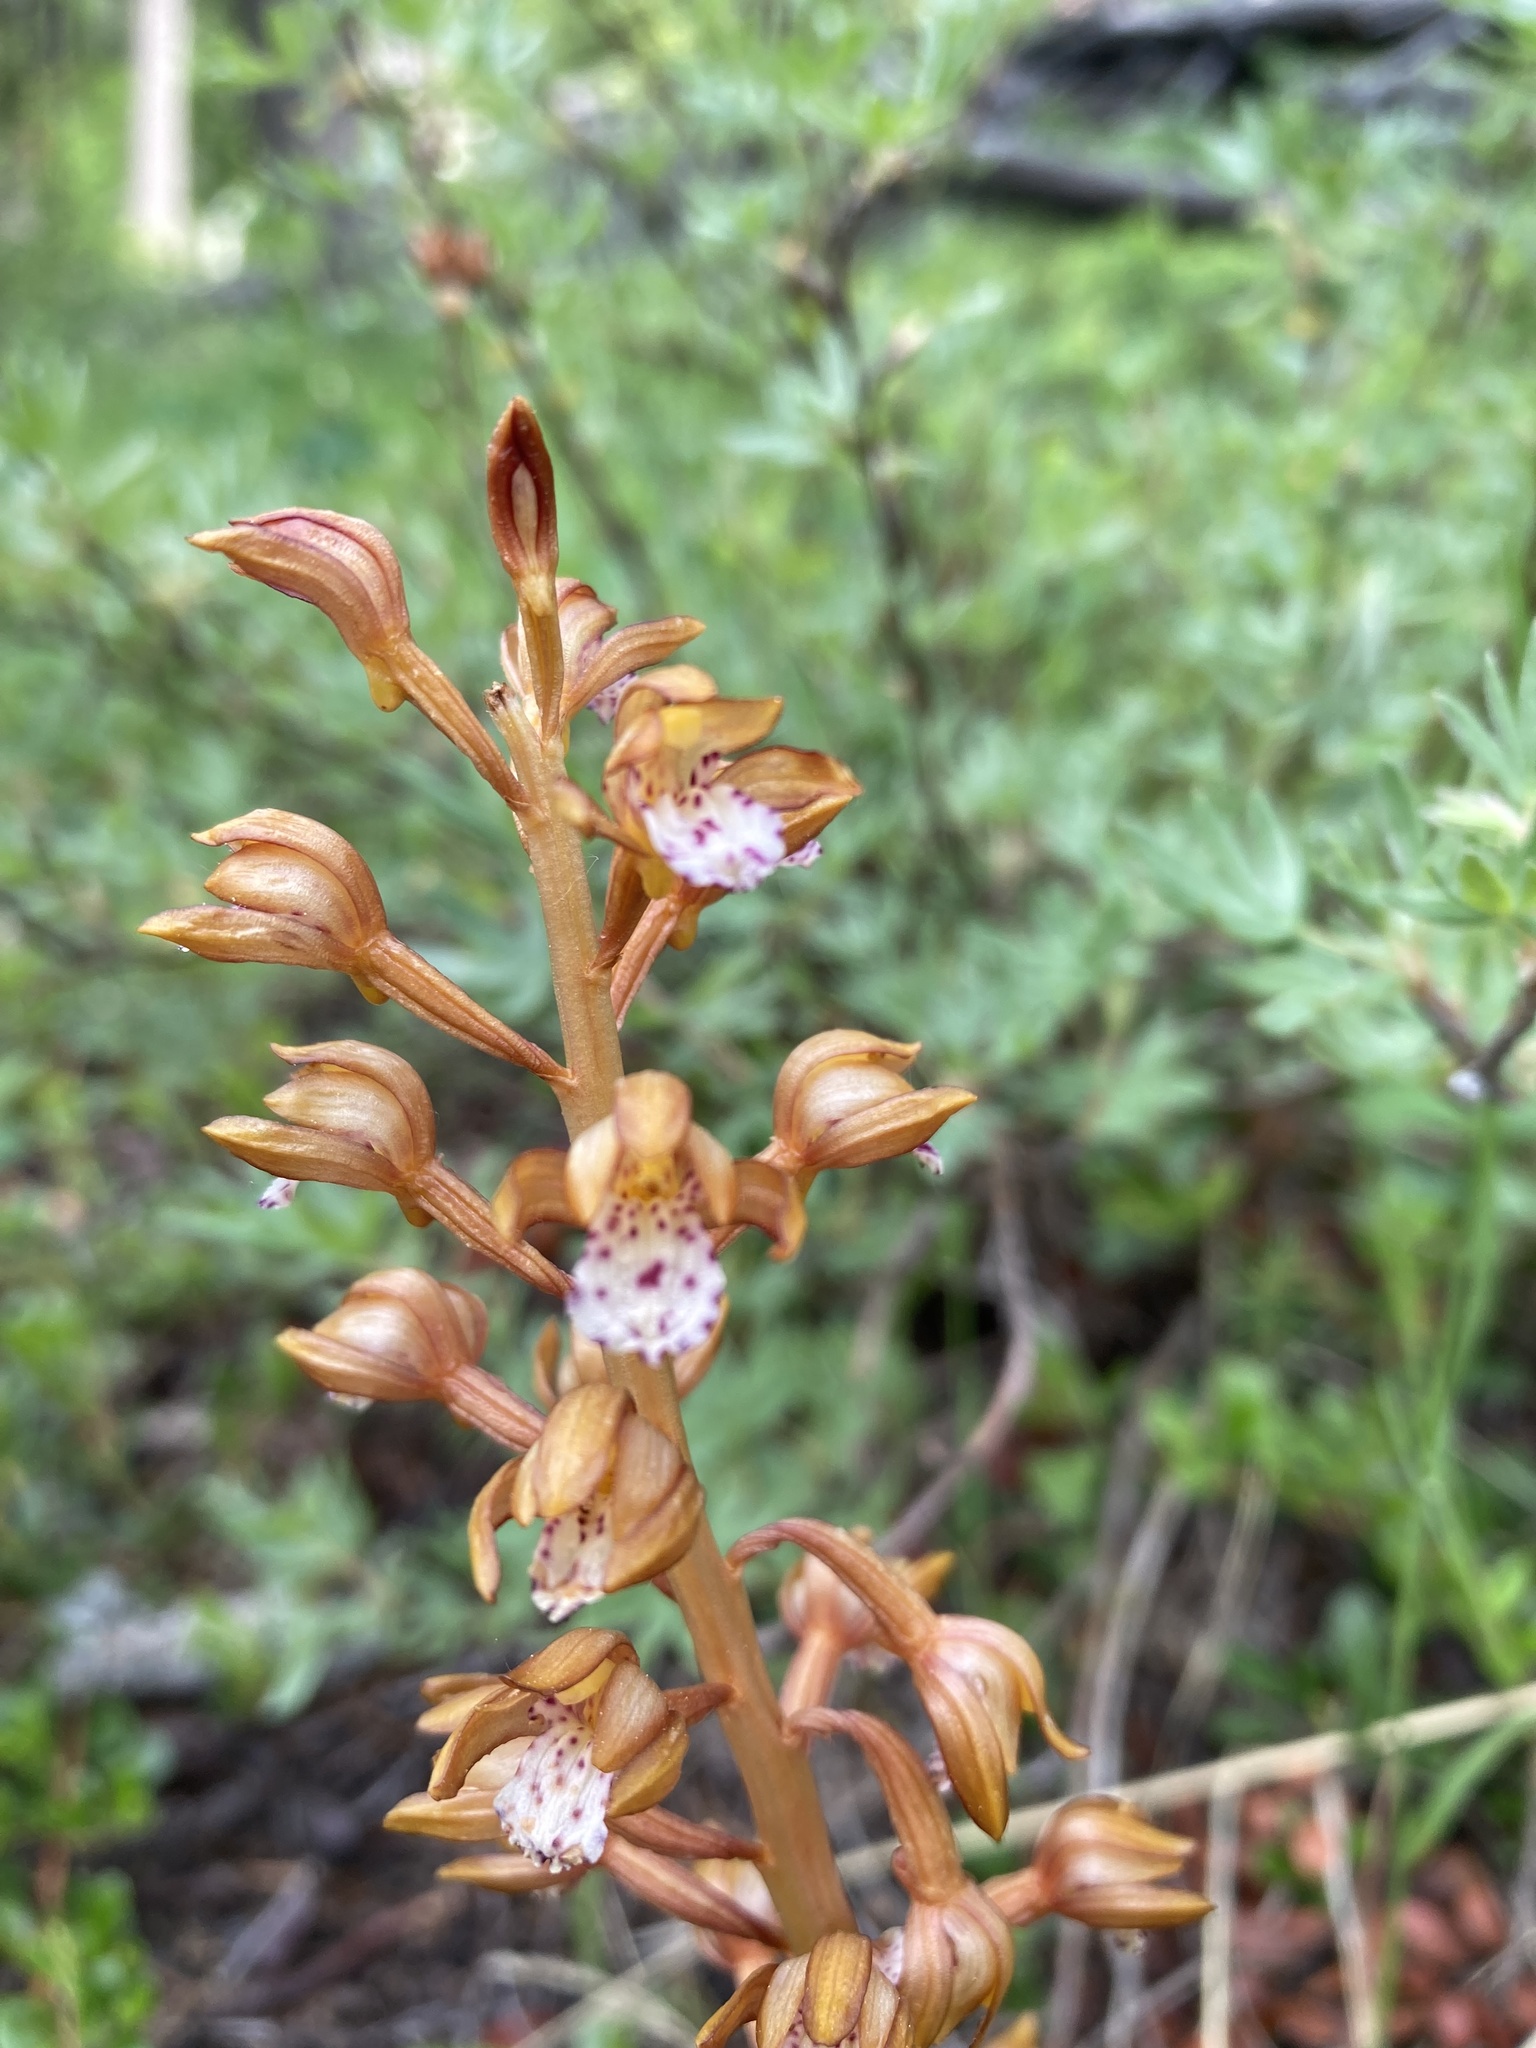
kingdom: Plantae
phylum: Tracheophyta
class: Liliopsida
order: Asparagales
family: Orchidaceae
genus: Corallorhiza
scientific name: Corallorhiza maculata
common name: Spotted coralroot
